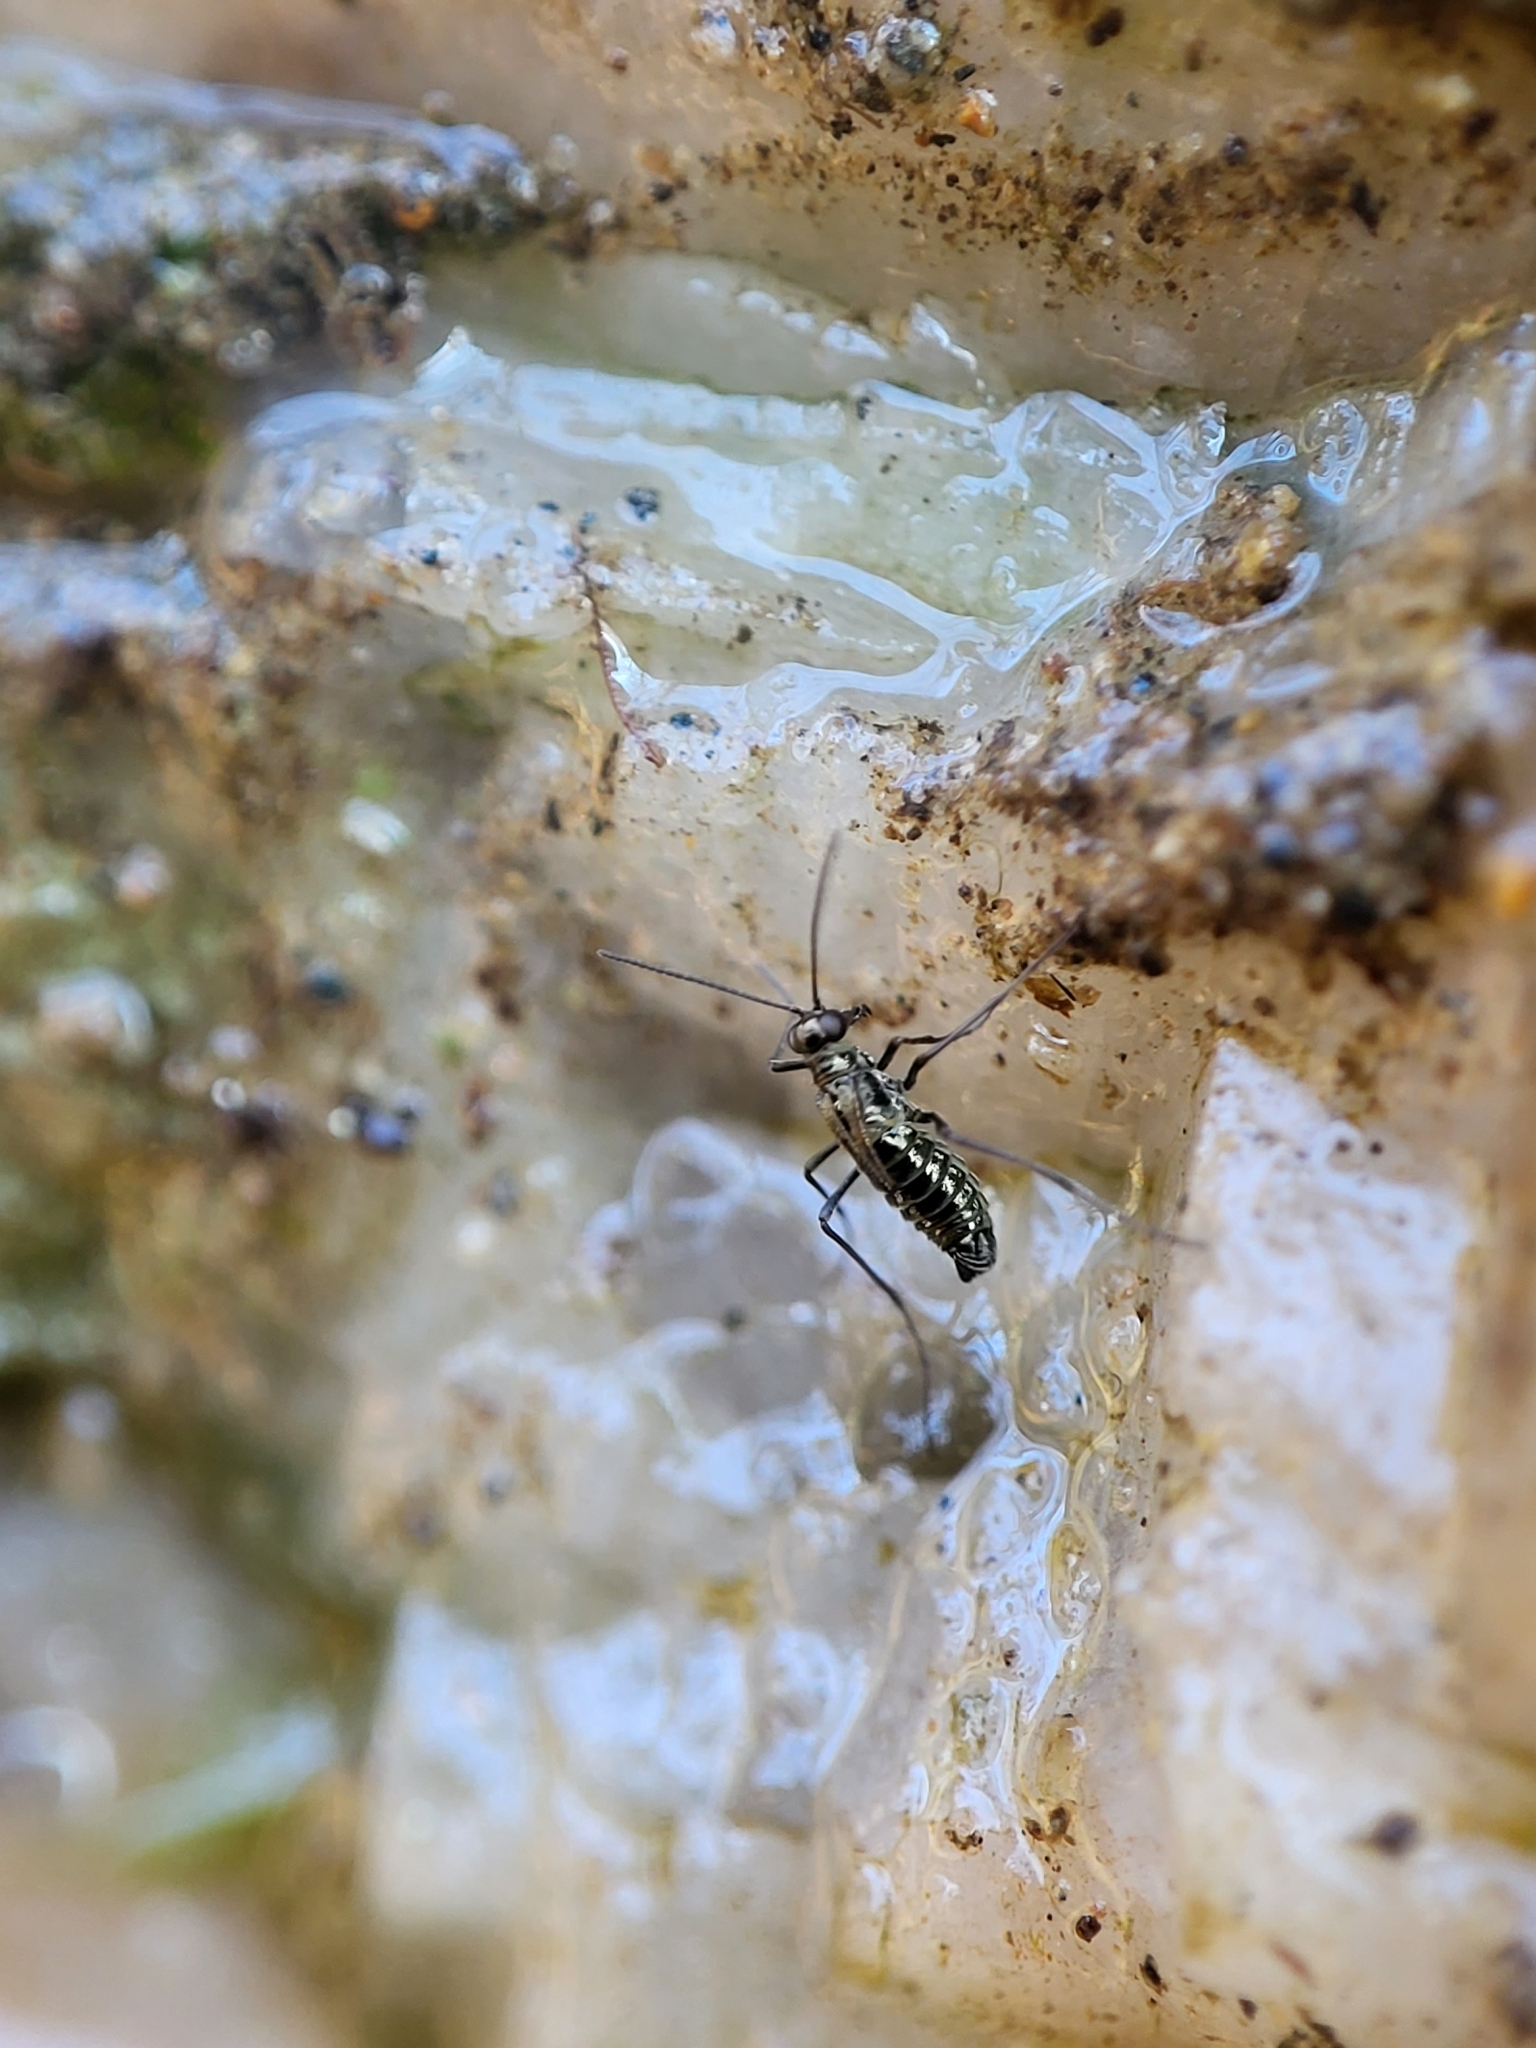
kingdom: Animalia
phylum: Arthropoda
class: Insecta
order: Mecoptera
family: Boreidae
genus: Boreus
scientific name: Boreus brumalis
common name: Mid-winter boreus
